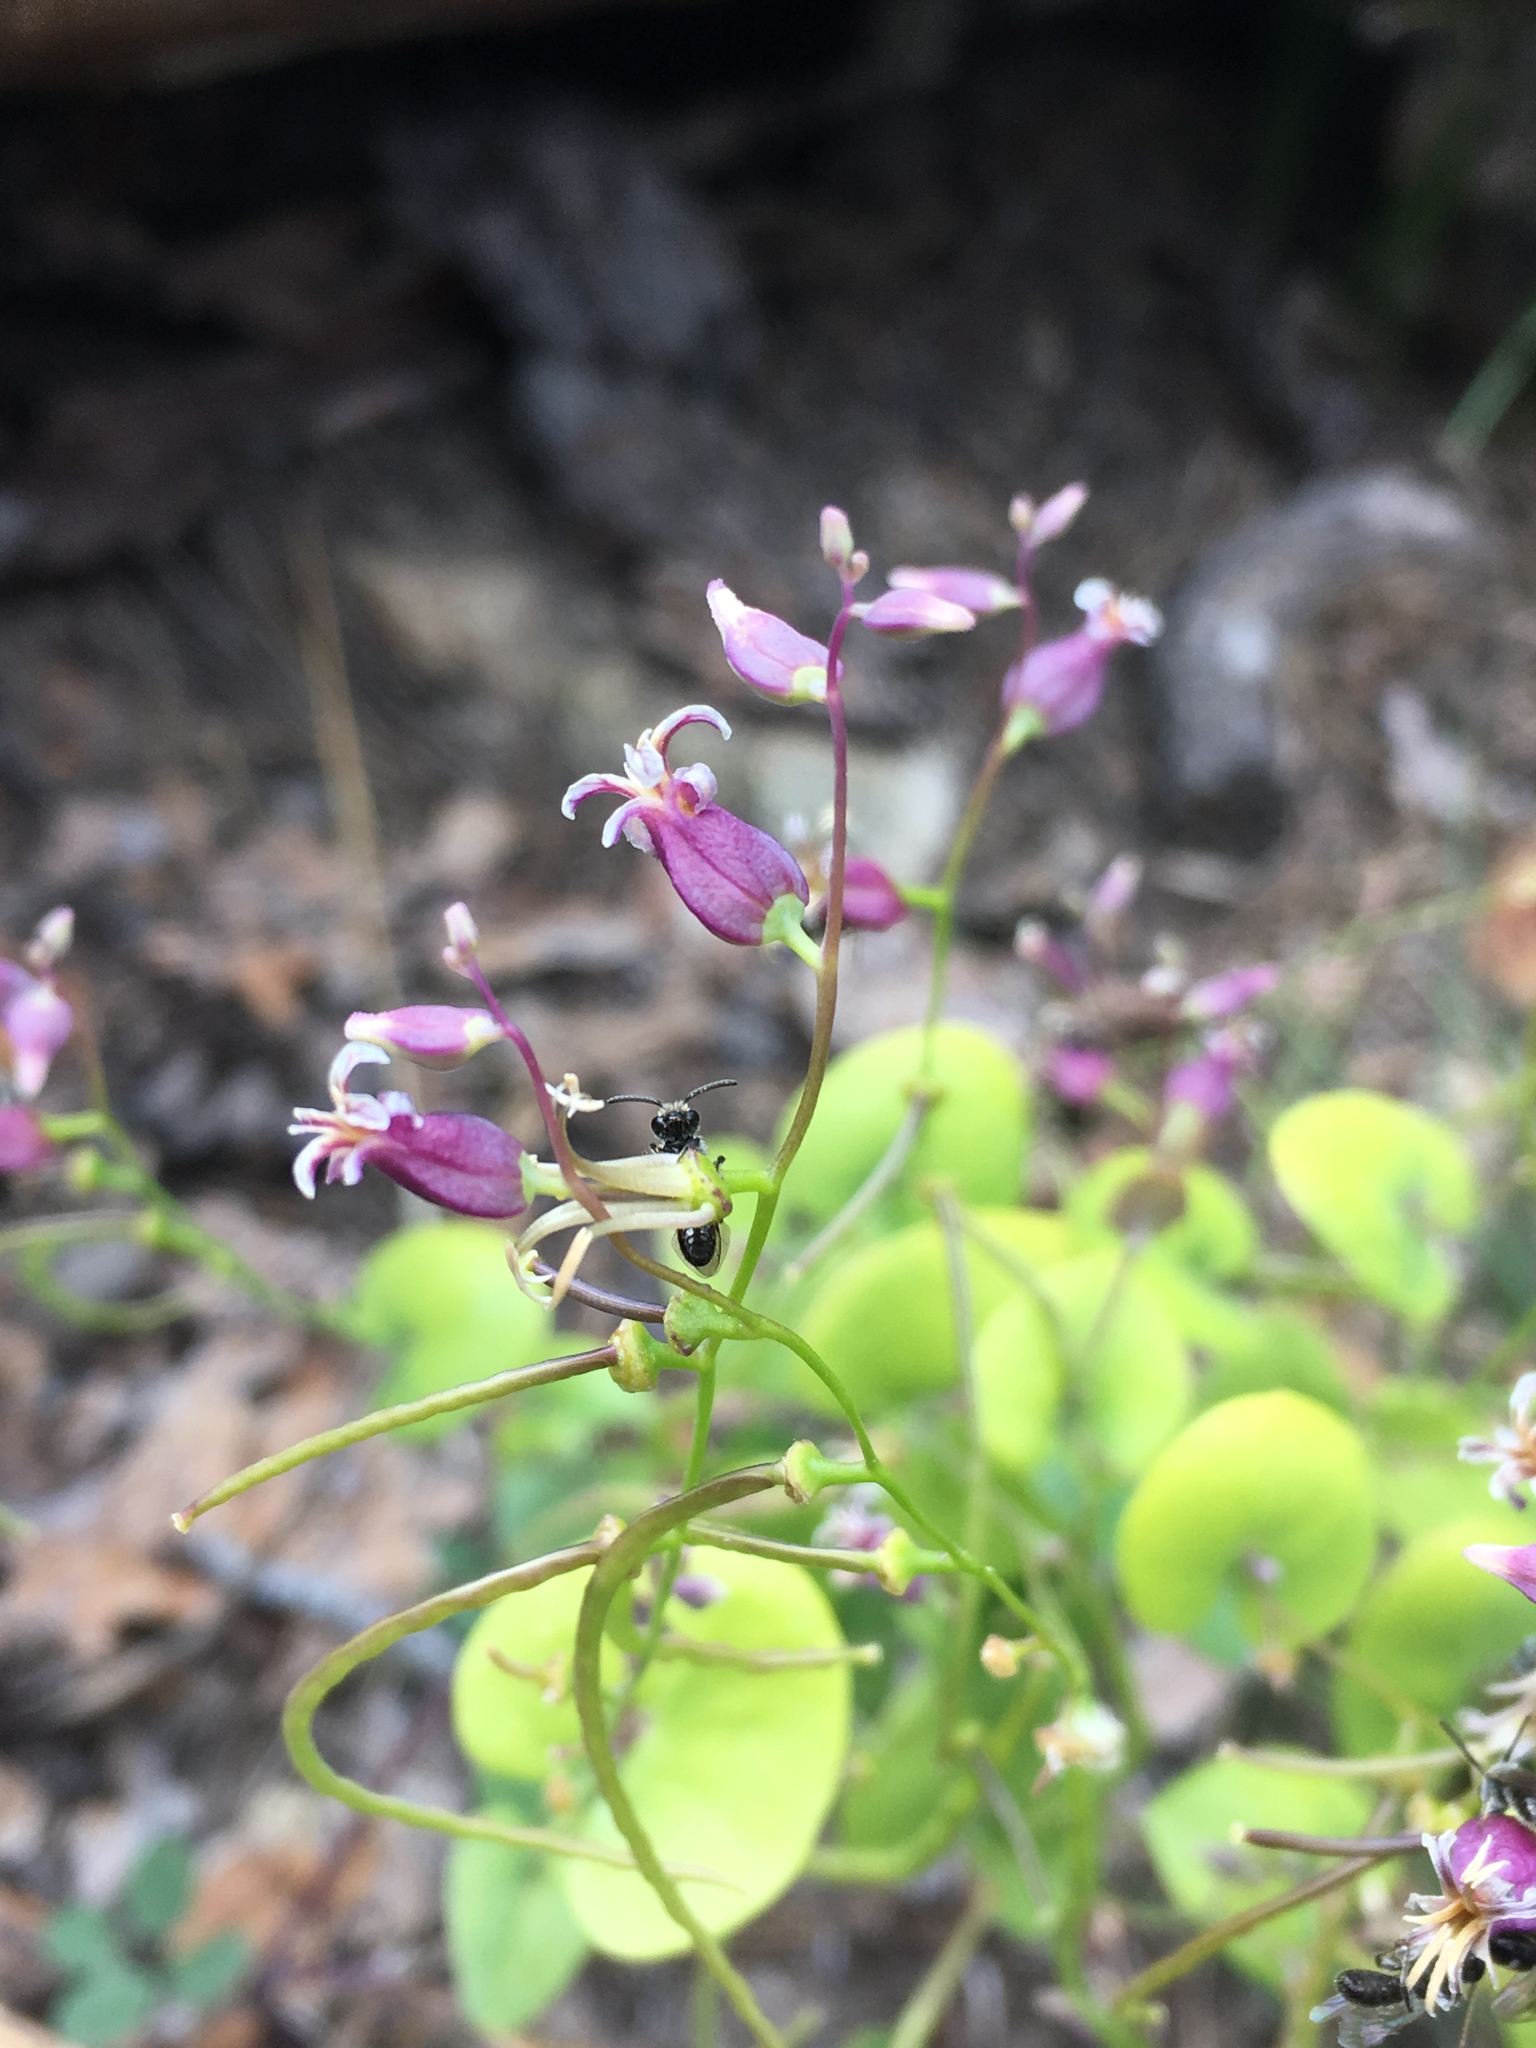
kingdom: Plantae
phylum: Tracheophyta
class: Magnoliopsida
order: Brassicales
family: Brassicaceae
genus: Streptanthus
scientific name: Streptanthus tortuosus
